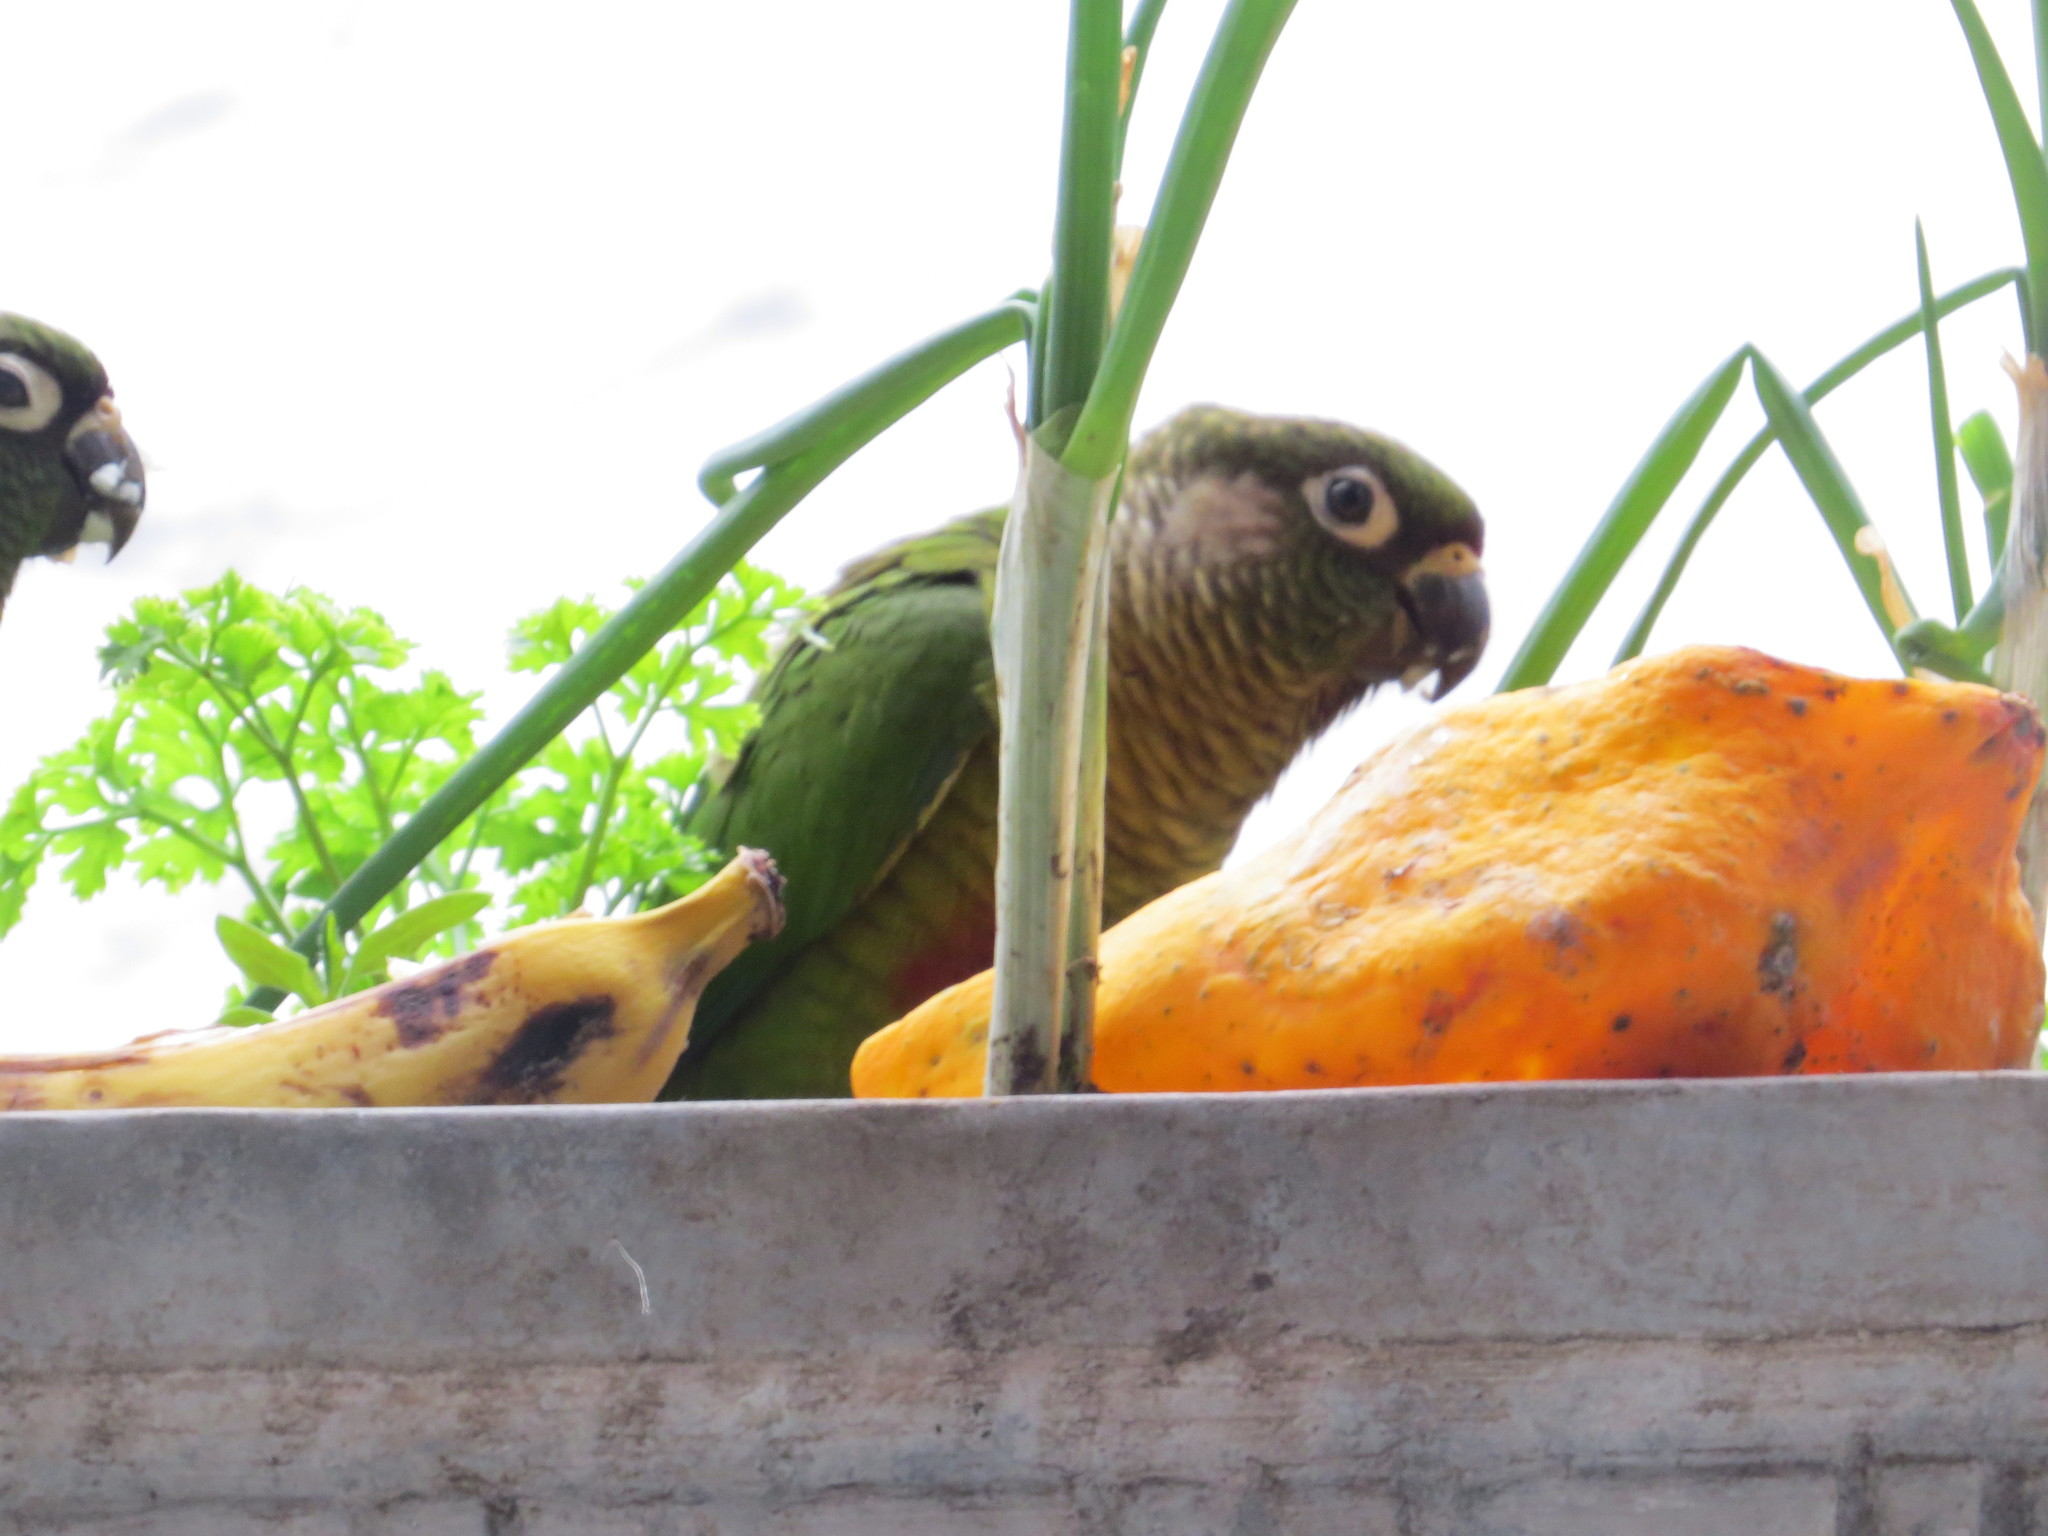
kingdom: Animalia
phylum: Chordata
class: Aves
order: Psittaciformes
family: Psittacidae
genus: Pyrrhura
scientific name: Pyrrhura frontalis
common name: Maroon-bellied parakeet
